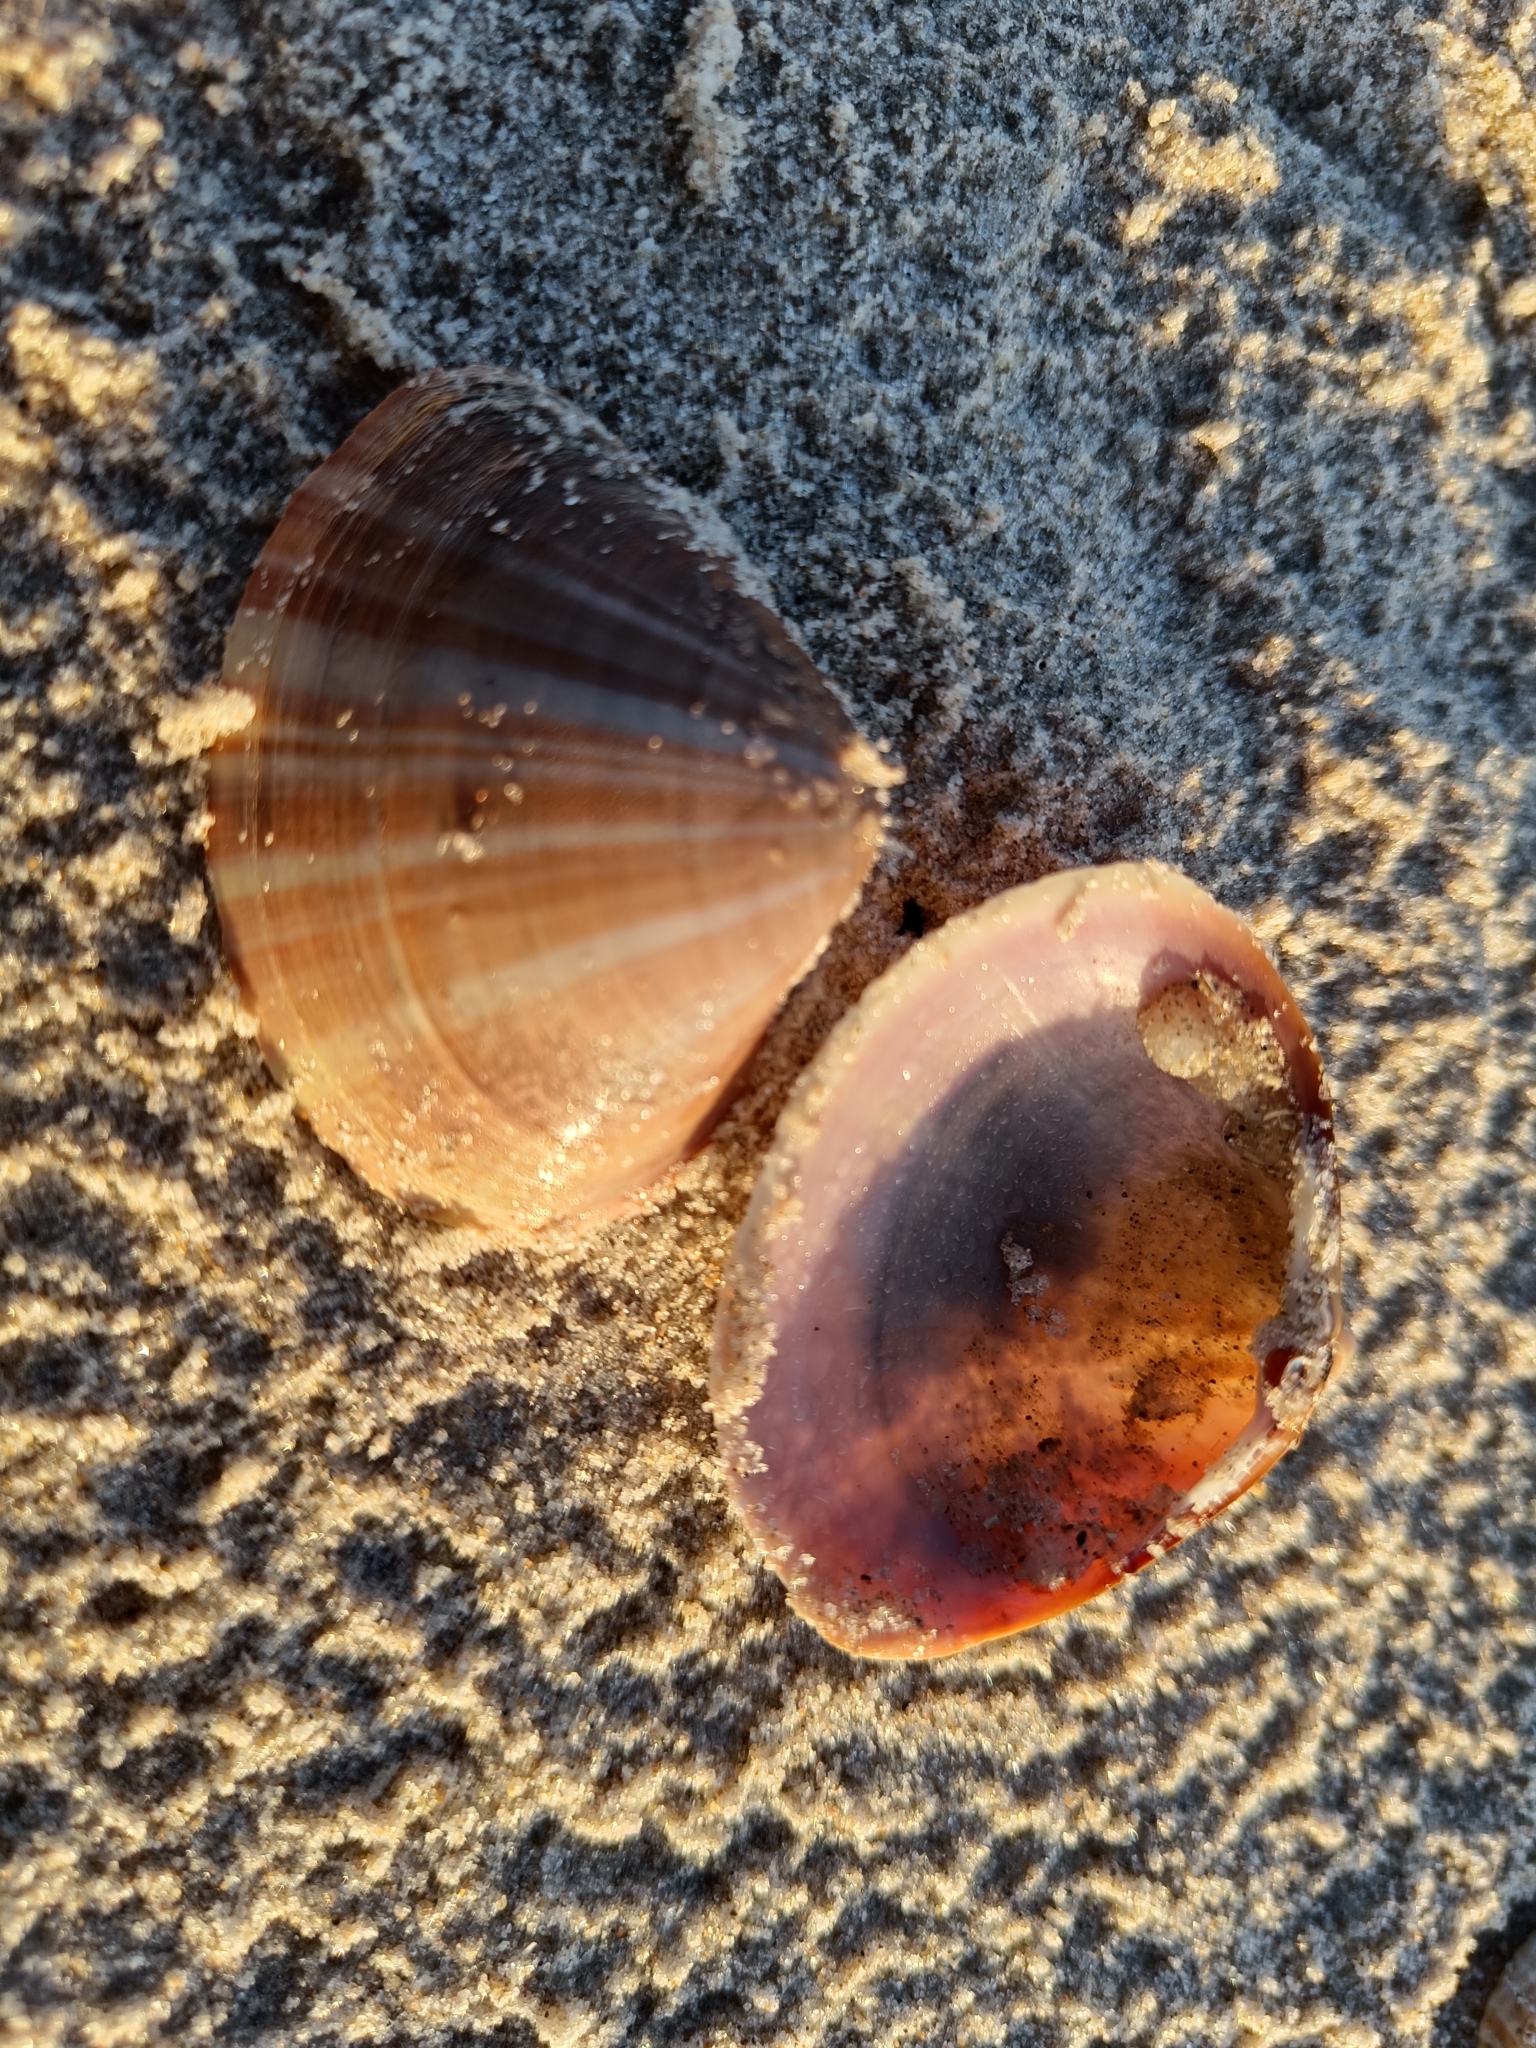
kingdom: Animalia
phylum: Mollusca
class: Bivalvia
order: Venerida
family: Mactridae
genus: Mactra
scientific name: Mactra stultorum
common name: Rayed trough shell
